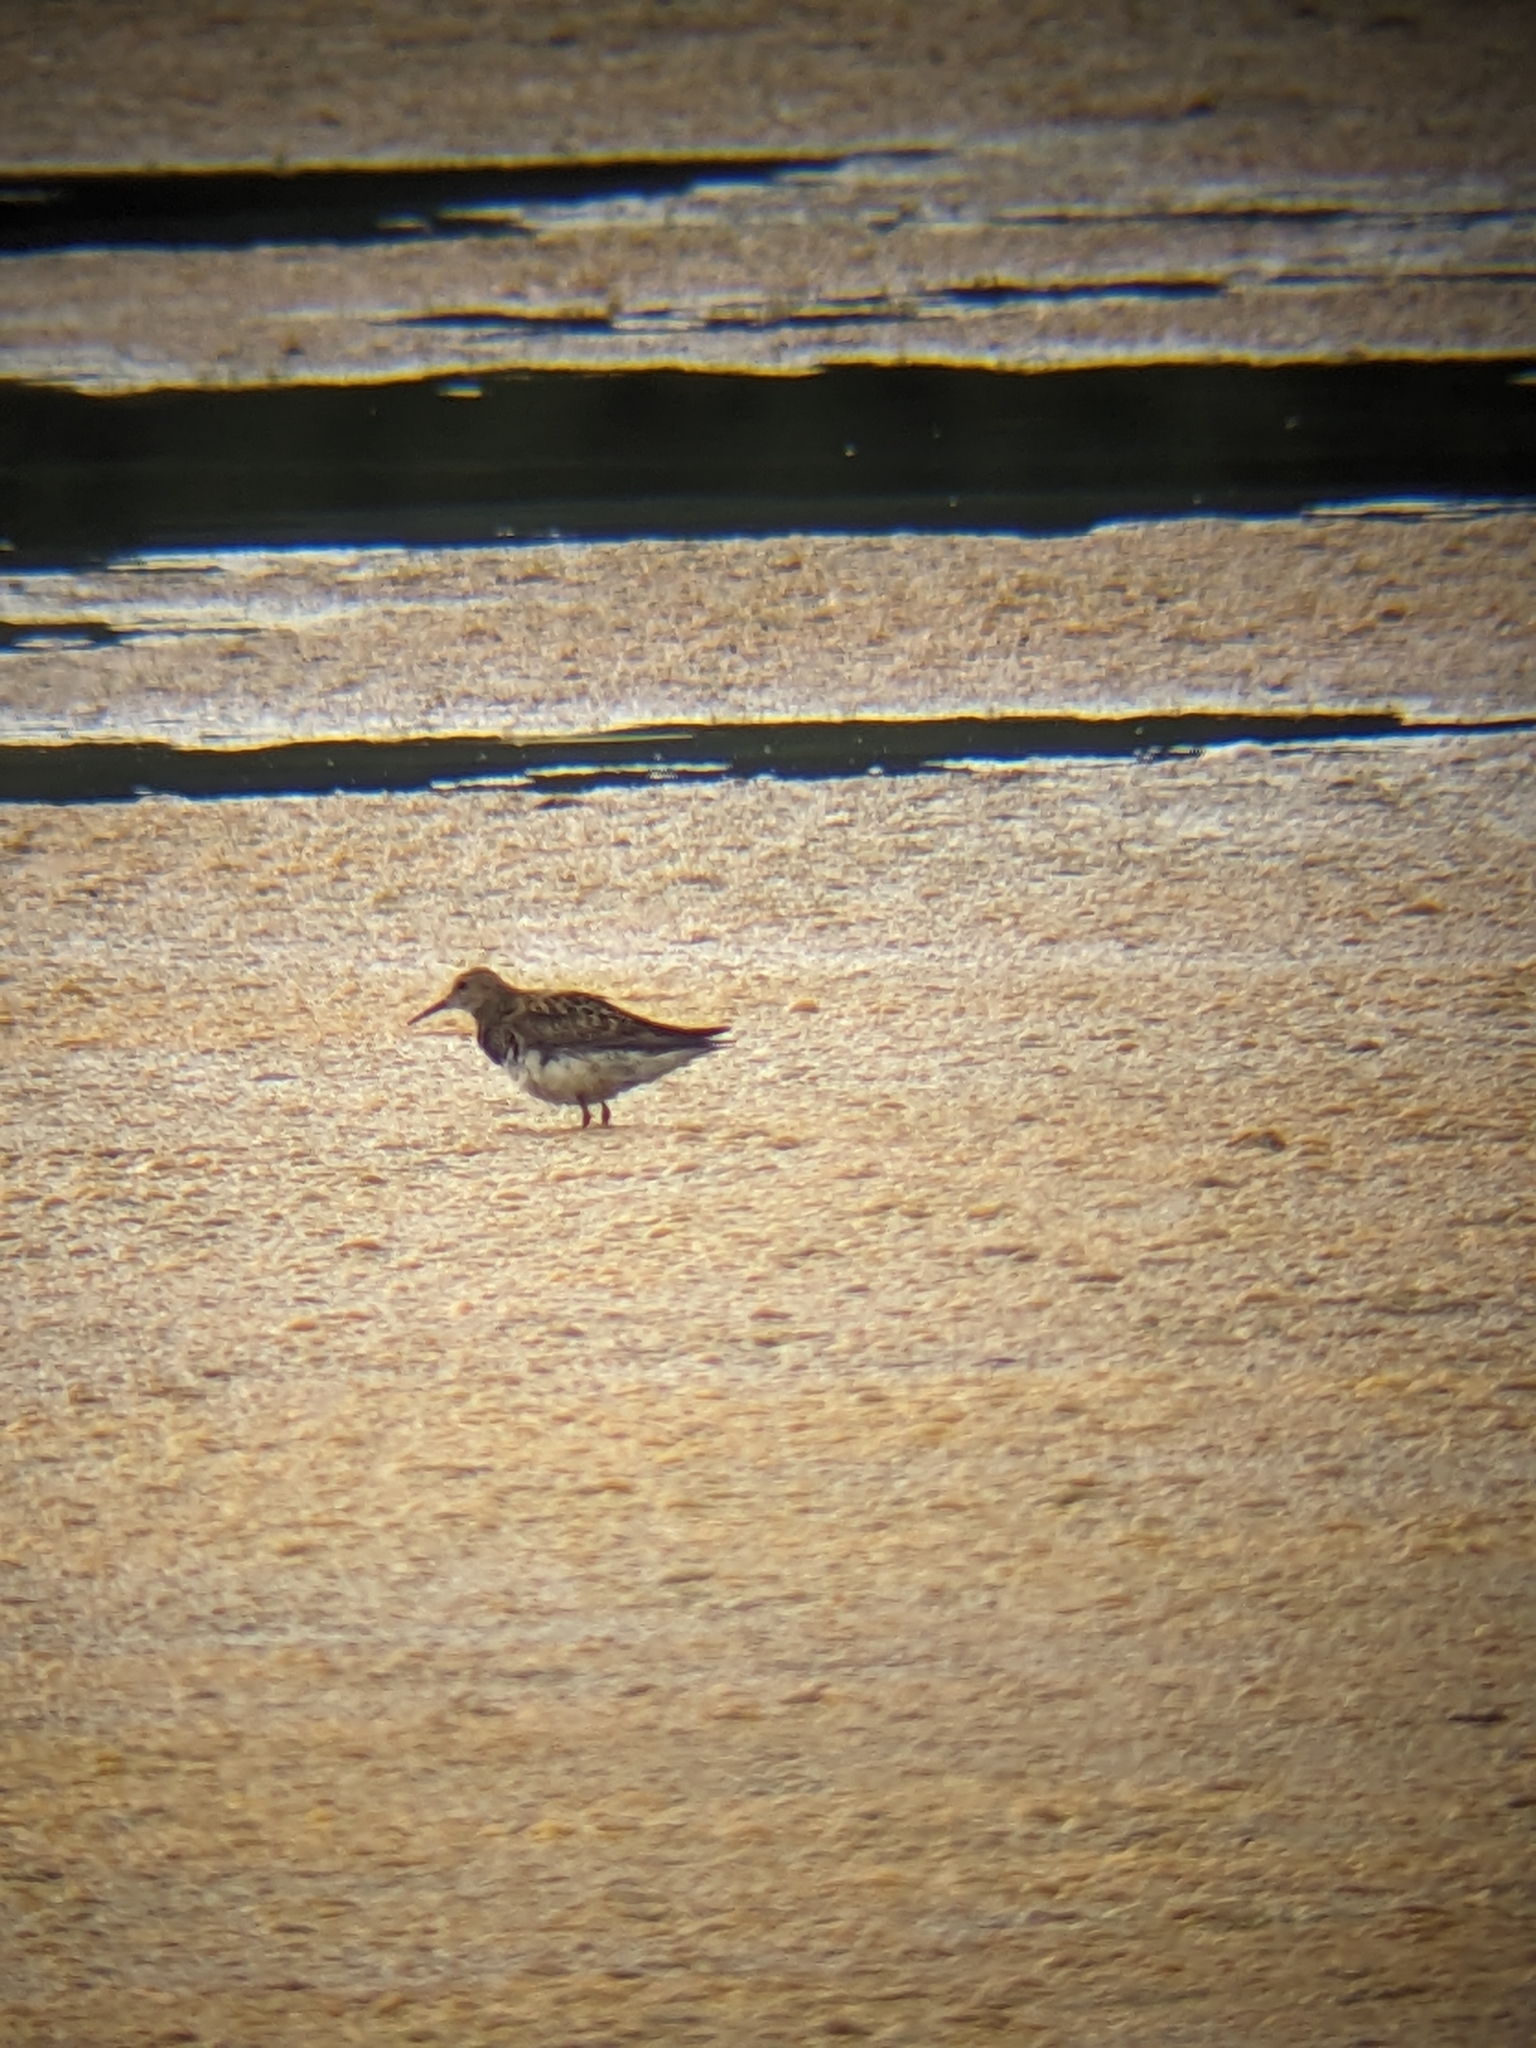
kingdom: Animalia
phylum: Chordata
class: Aves
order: Charadriiformes
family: Scolopacidae
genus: Calidris
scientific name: Calidris melanotos
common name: Pectoral sandpiper
